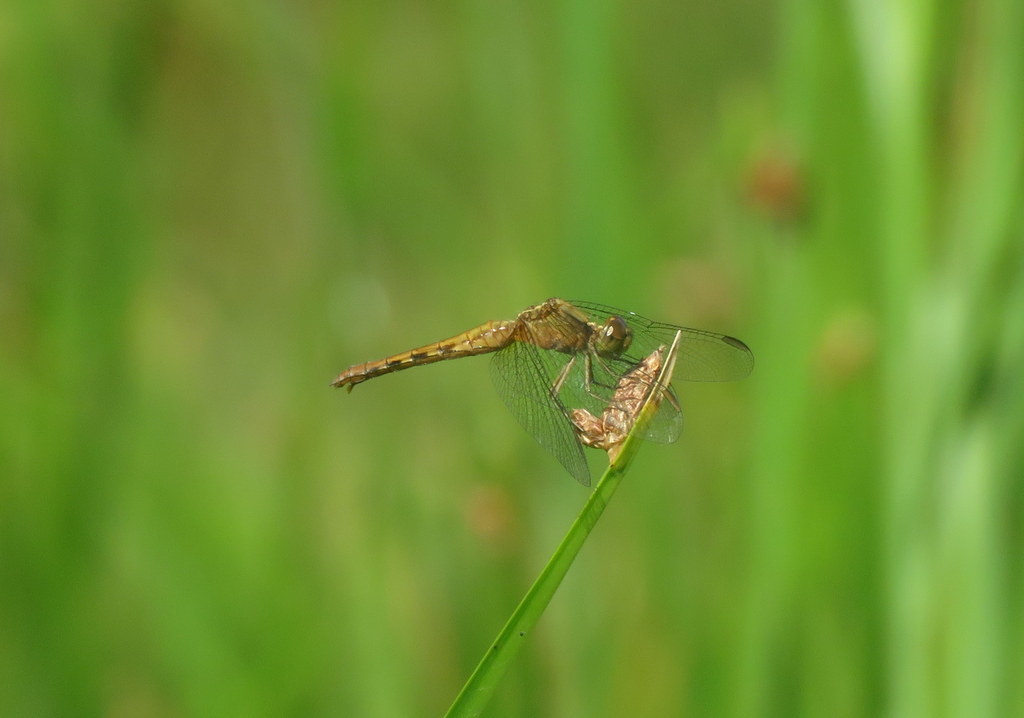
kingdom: Animalia
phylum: Arthropoda
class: Insecta
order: Odonata
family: Libellulidae
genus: Erythrodiplax
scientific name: Erythrodiplax melanorubra
